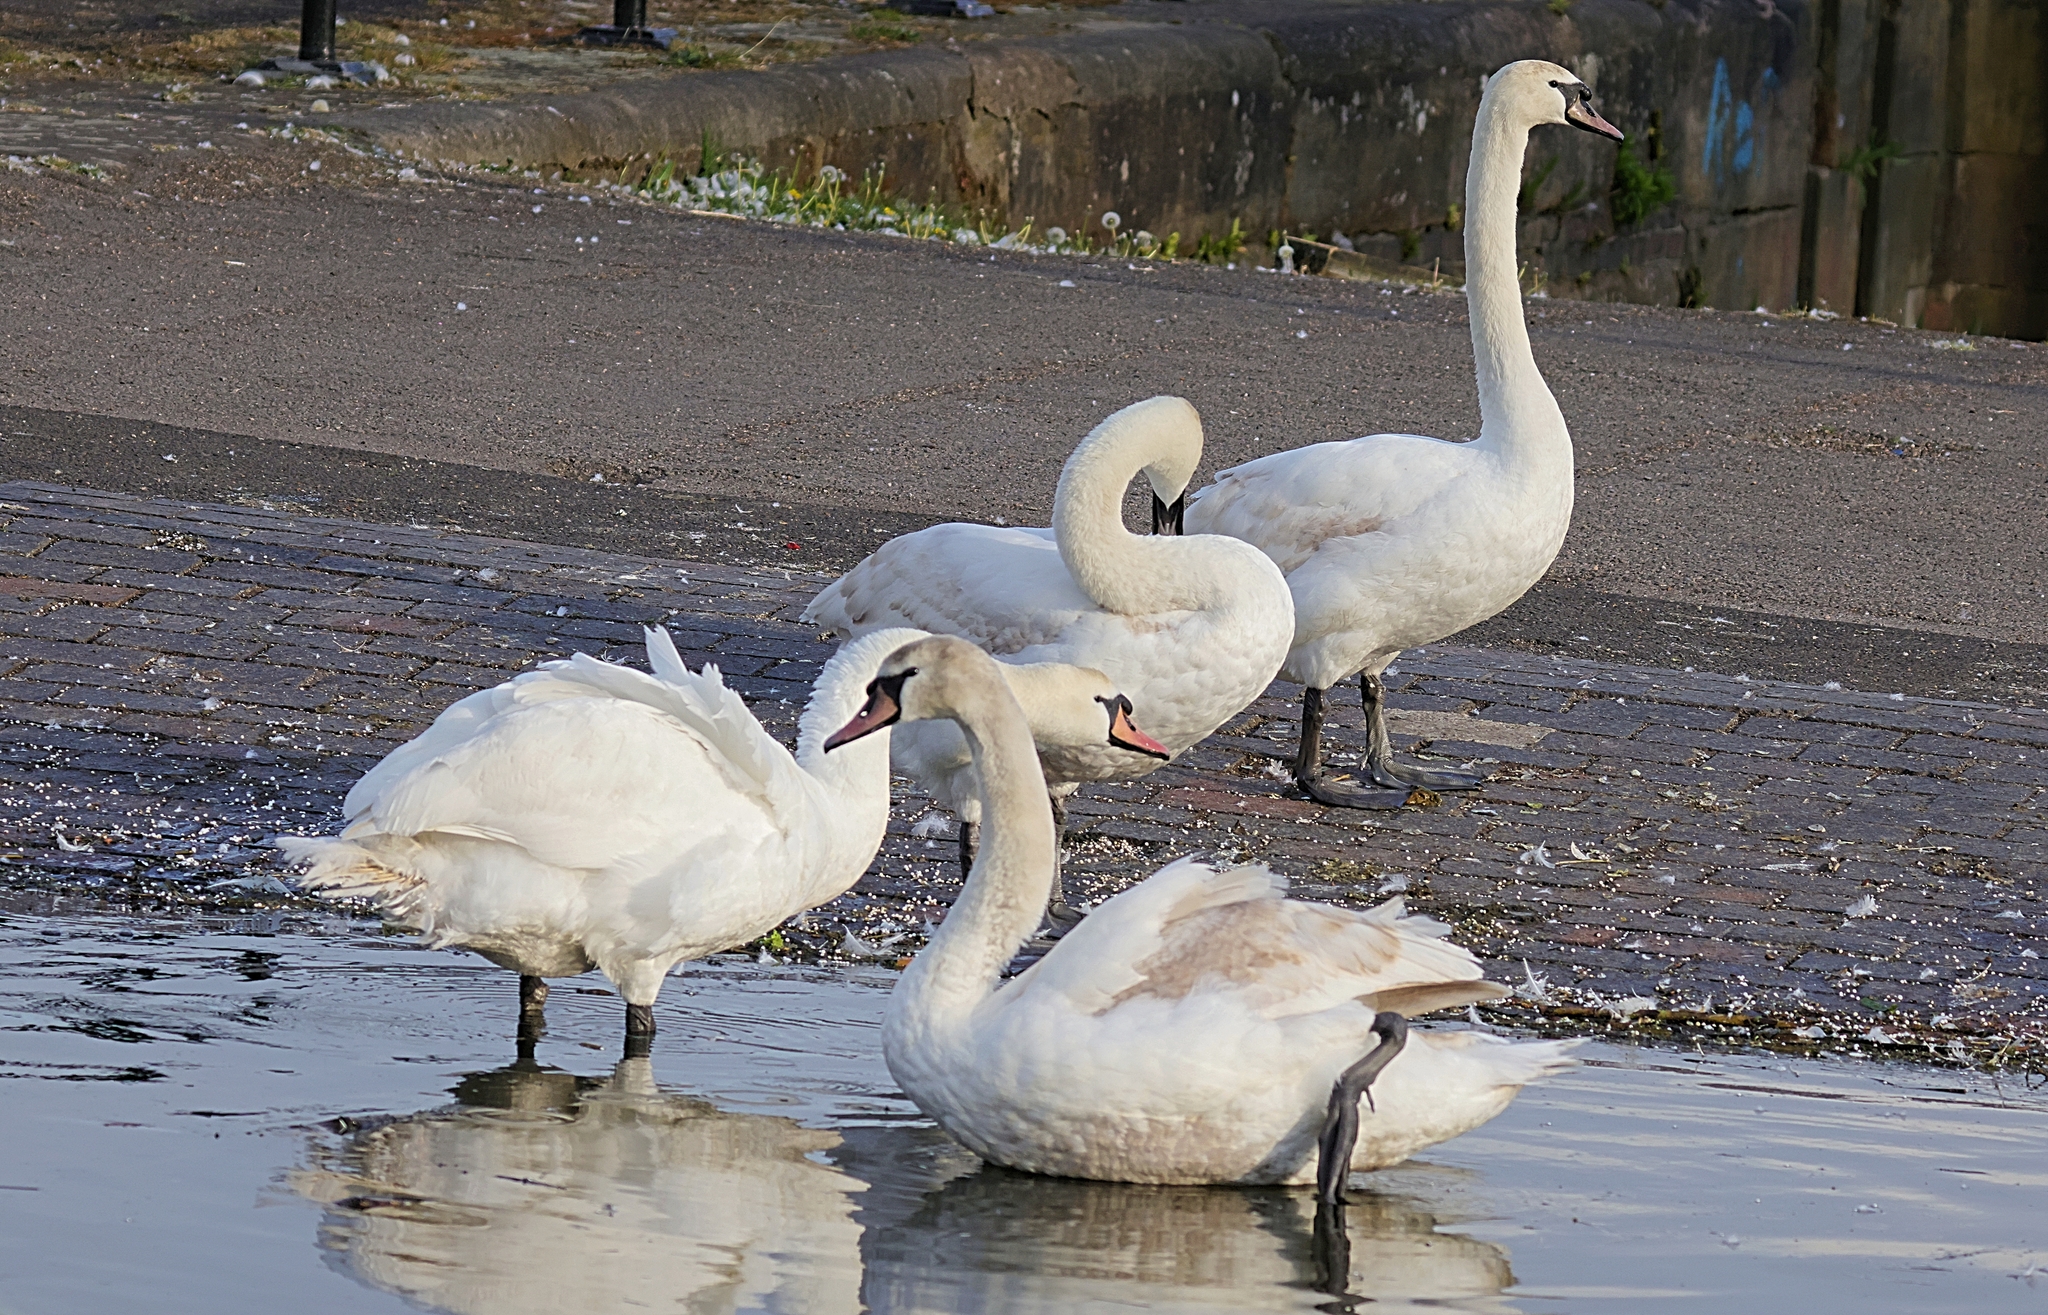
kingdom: Animalia
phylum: Chordata
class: Aves
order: Anseriformes
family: Anatidae
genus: Cygnus
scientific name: Cygnus olor
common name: Mute swan
